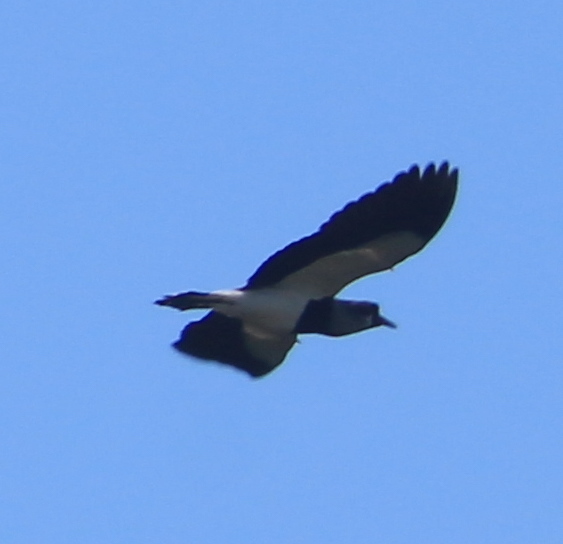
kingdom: Animalia
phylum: Chordata
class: Aves
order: Charadriiformes
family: Charadriidae
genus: Vanellus
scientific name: Vanellus chilensis
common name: Southern lapwing
